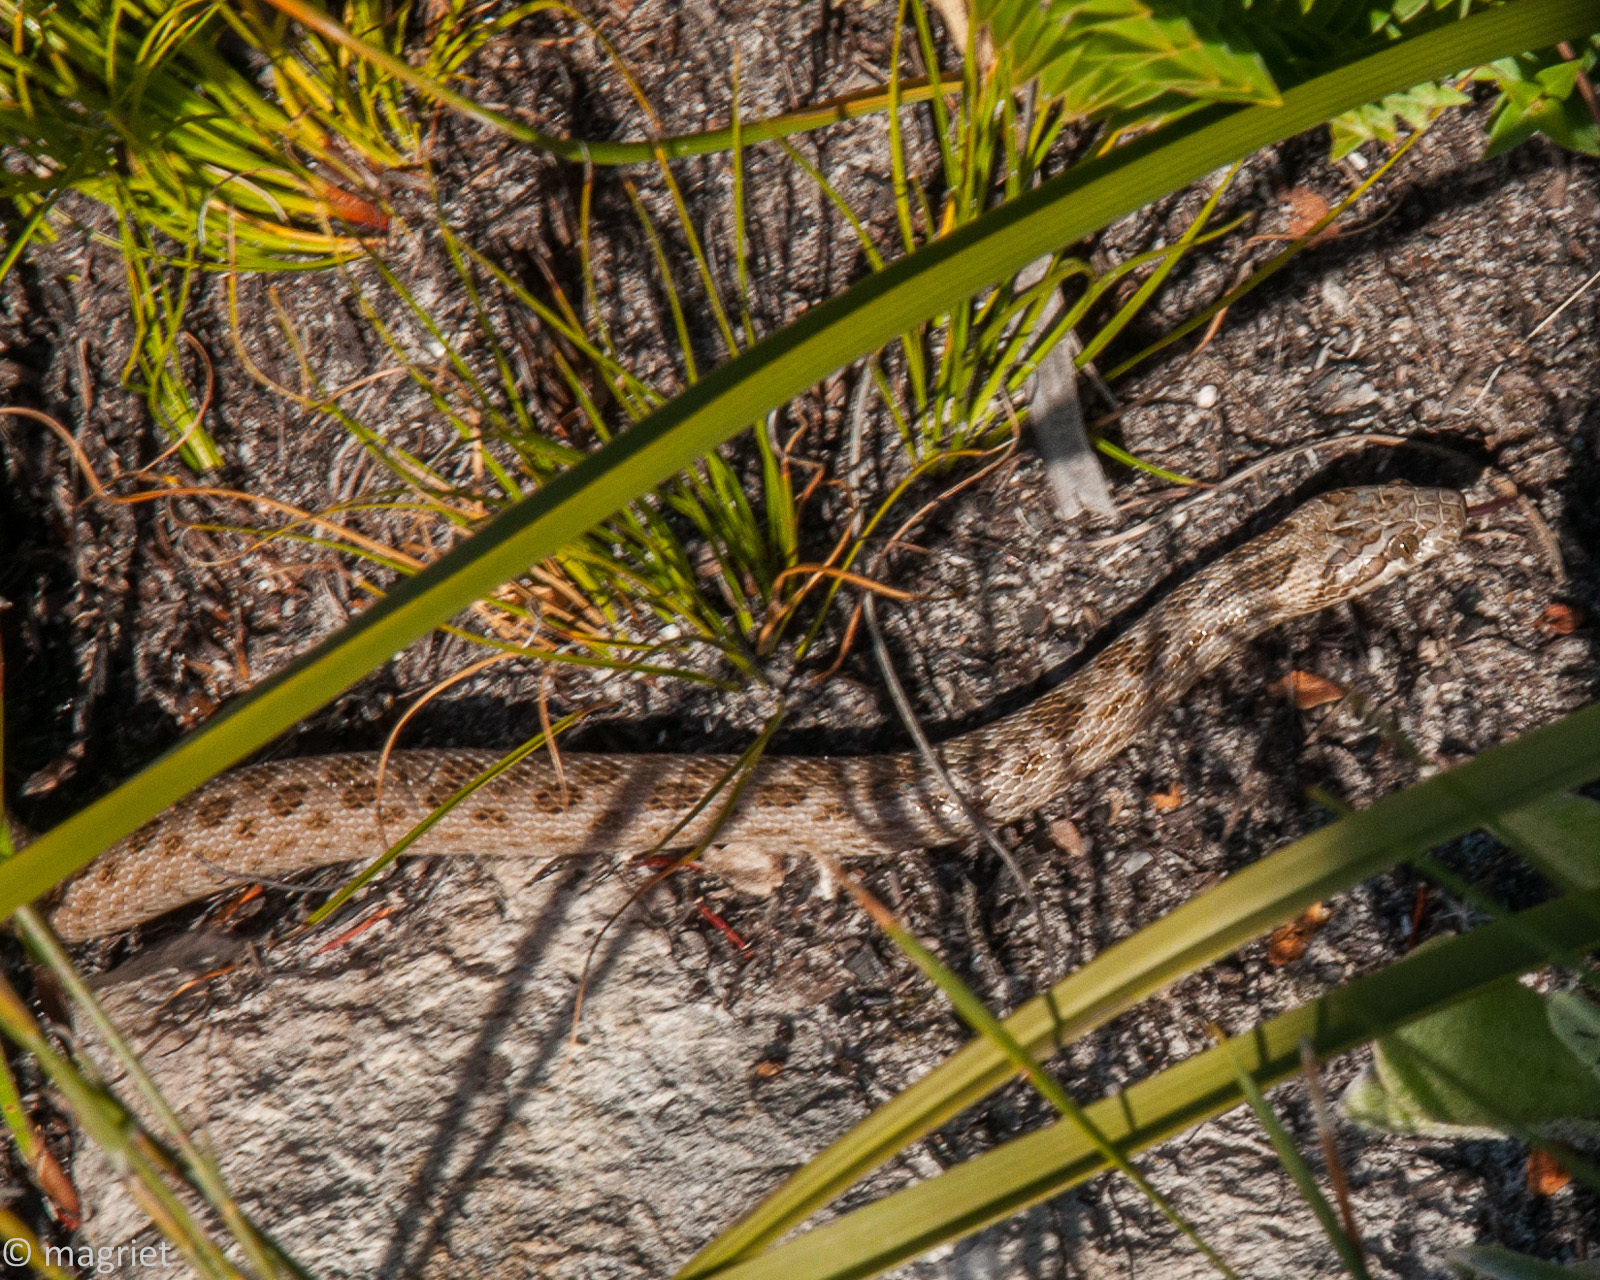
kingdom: Animalia
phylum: Chordata
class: Squamata
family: Lamprophiidae
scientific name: Lamprophiidae
